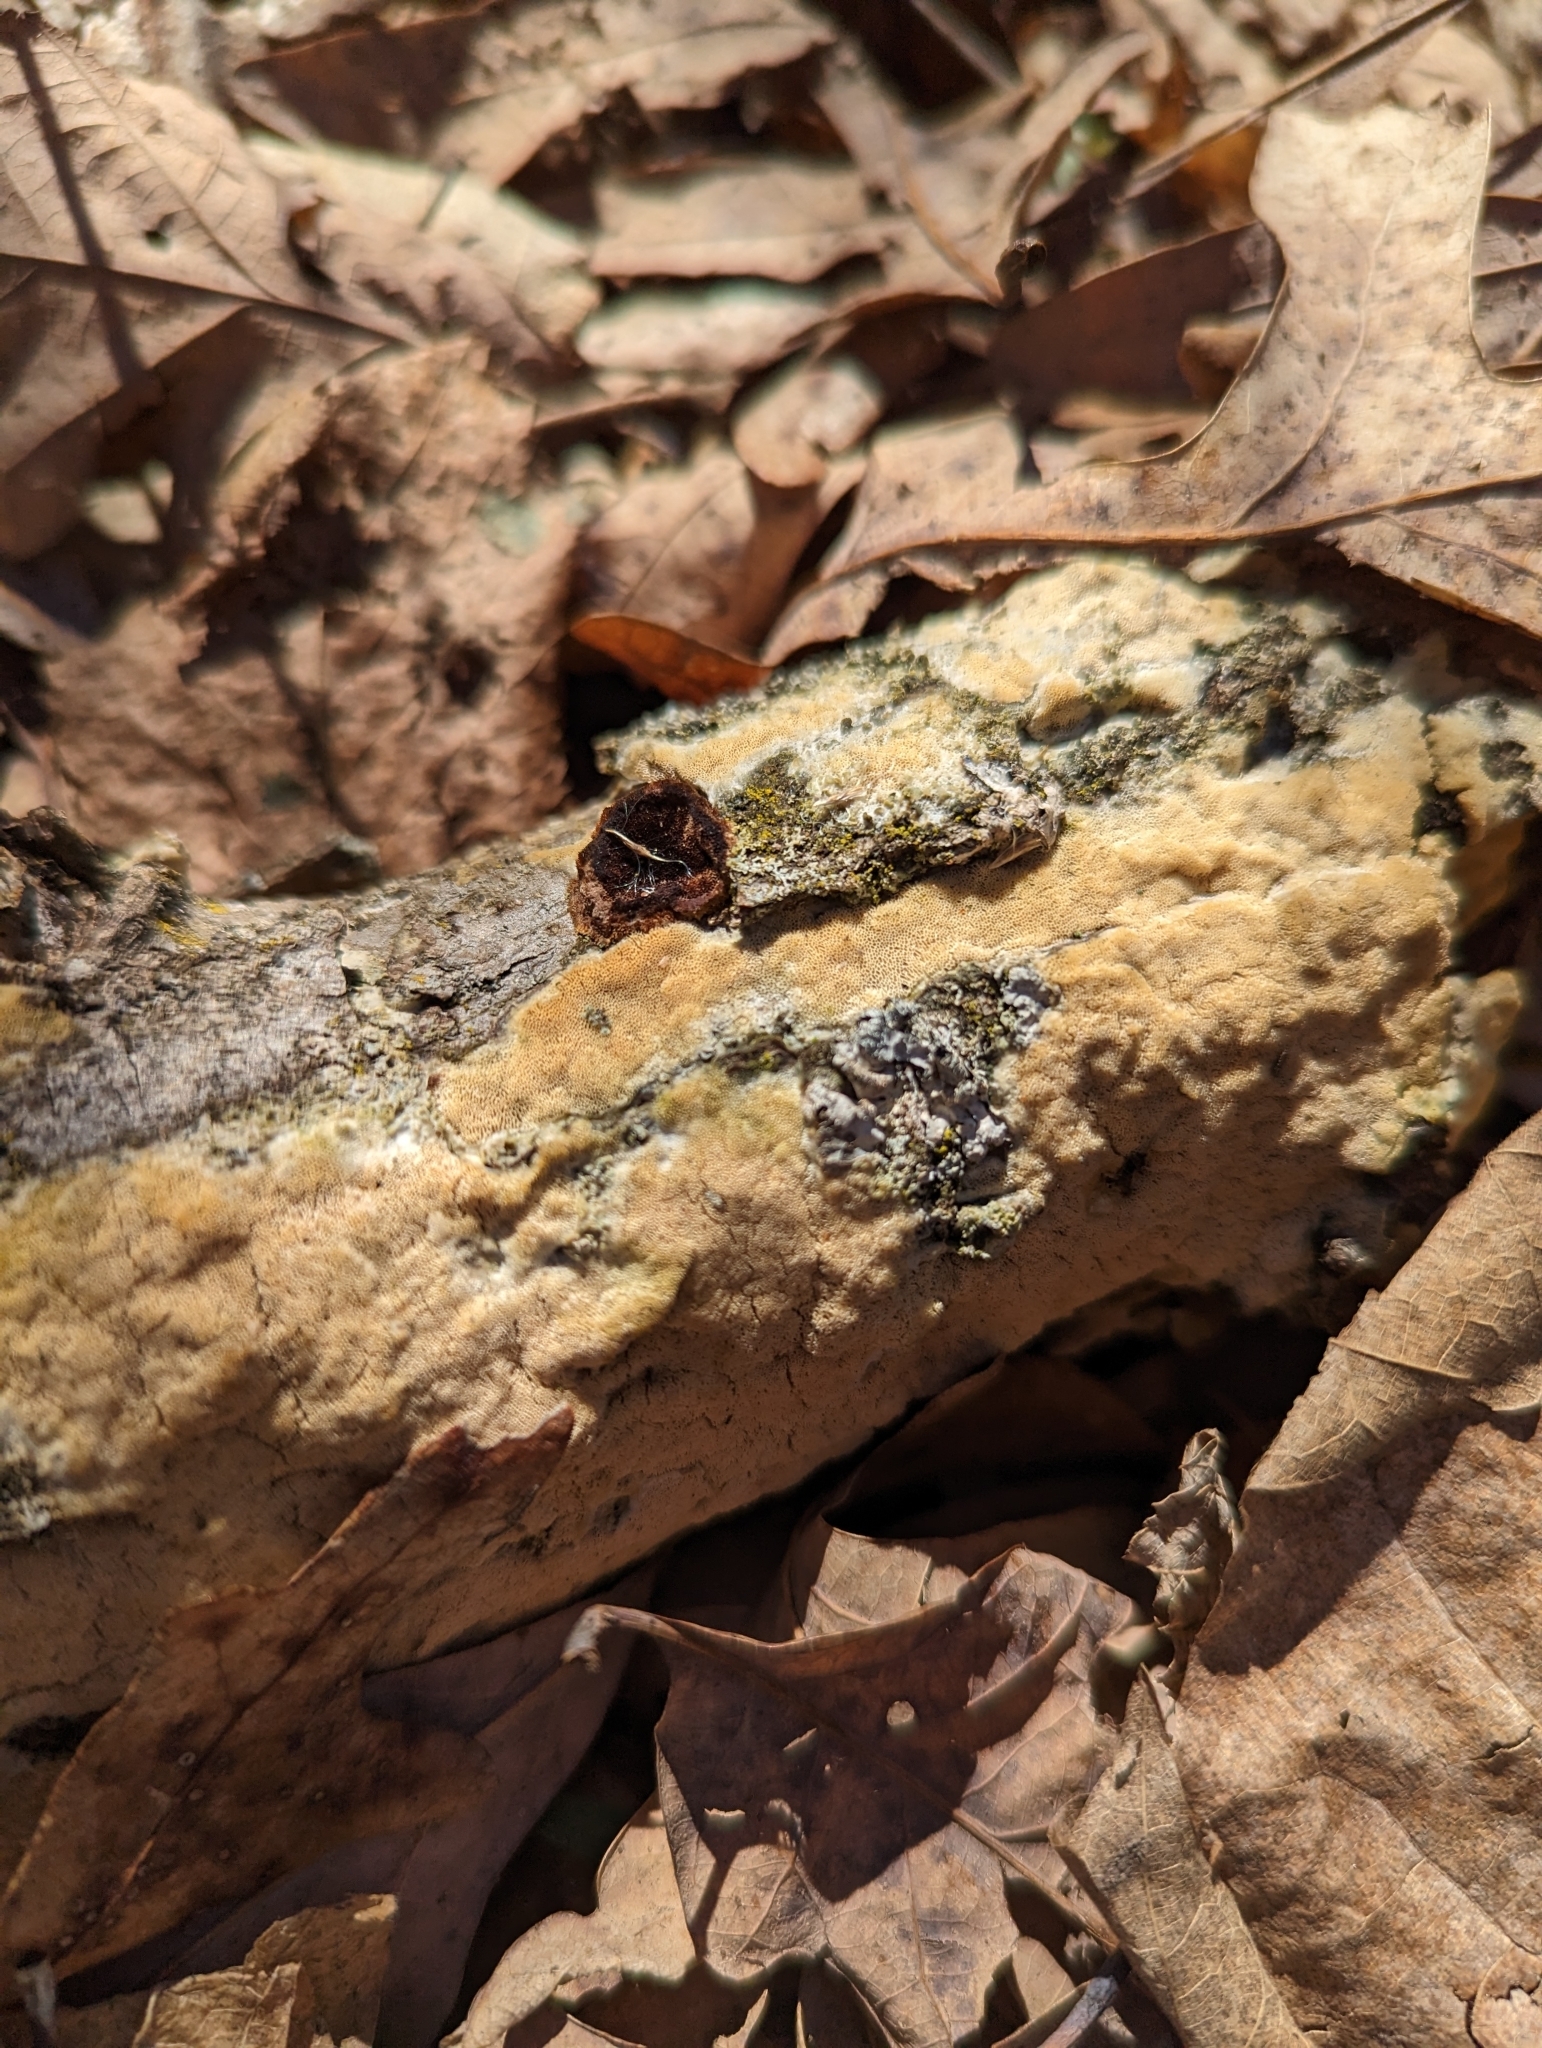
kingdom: Fungi
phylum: Basidiomycota
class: Agaricomycetes
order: Hymenochaetales
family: Schizoporaceae
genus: Schizopora
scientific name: Schizopora paradoxa
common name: Split porecrust
